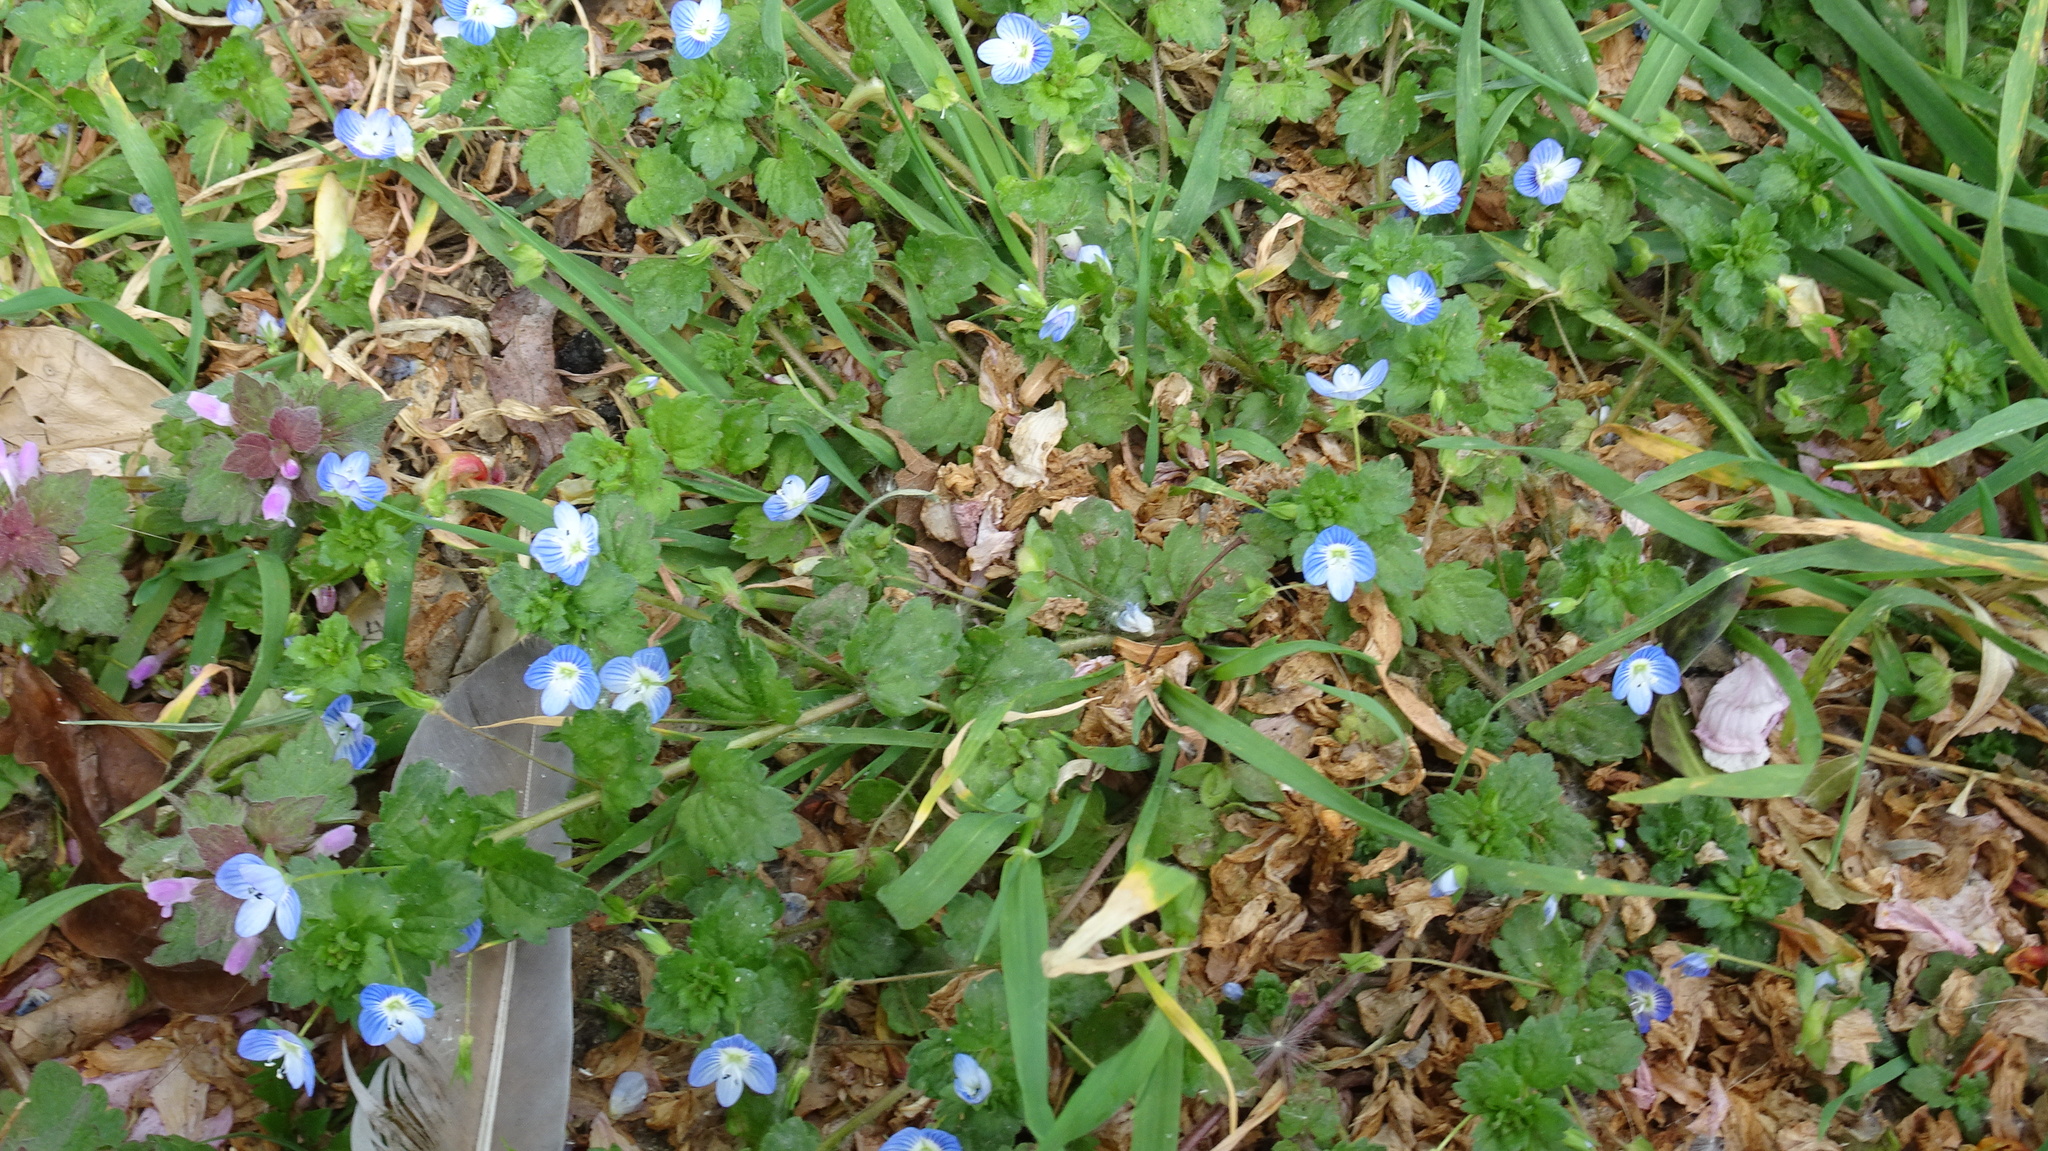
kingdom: Plantae
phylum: Tracheophyta
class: Magnoliopsida
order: Lamiales
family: Plantaginaceae
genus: Veronica
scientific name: Veronica persica
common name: Common field-speedwell
